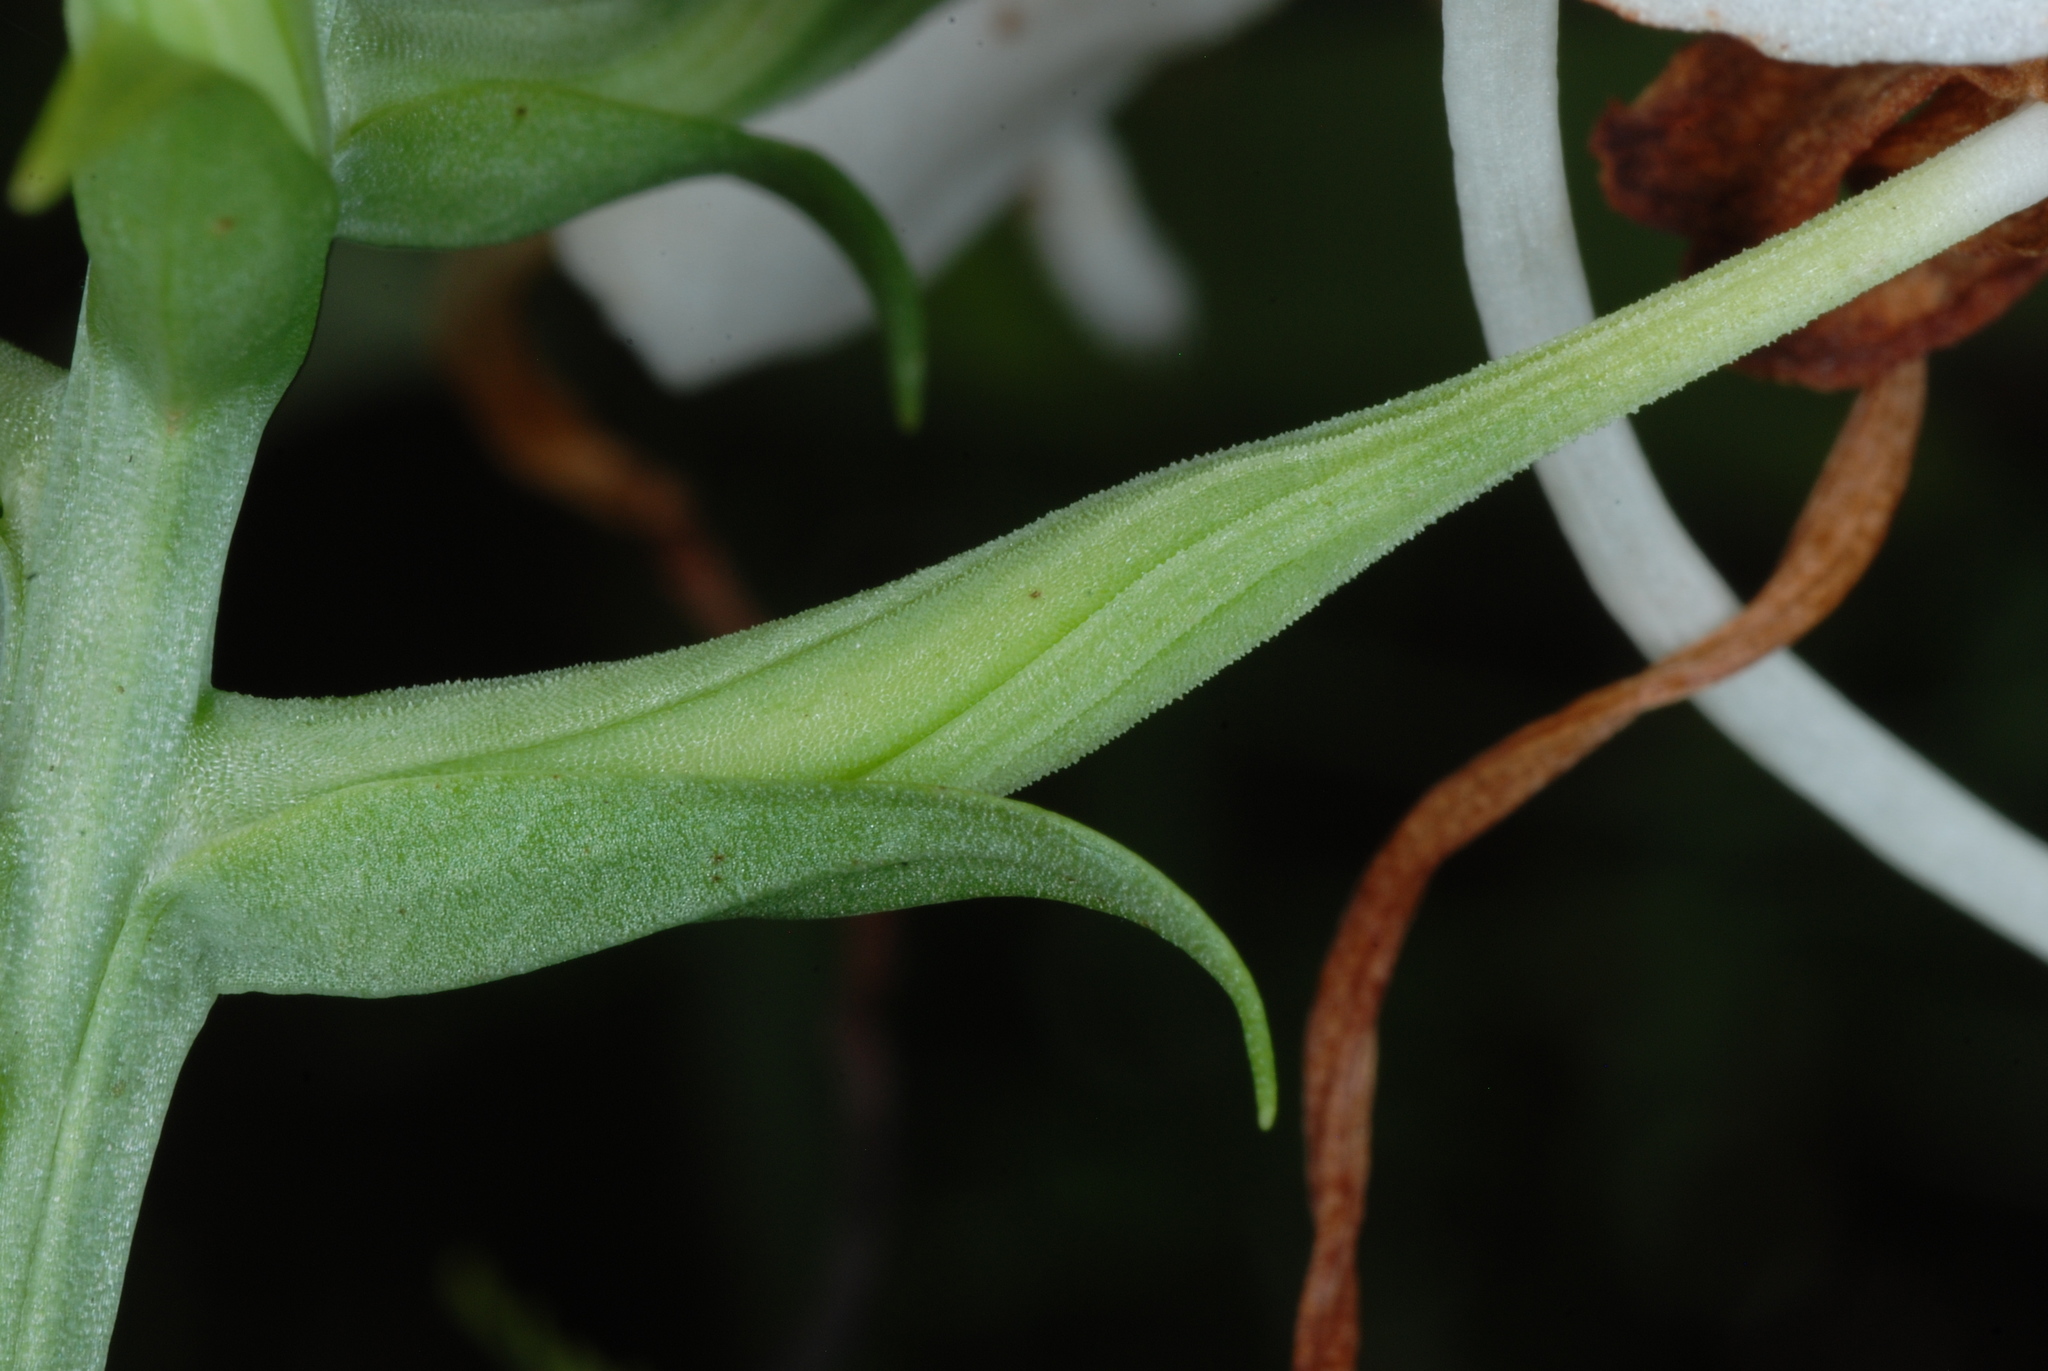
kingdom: Plantae
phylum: Tracheophyta
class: Liliopsida
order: Asparagales
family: Orchidaceae
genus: Platanthera
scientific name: Platanthera integrilabia
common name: White fringeless orchid
